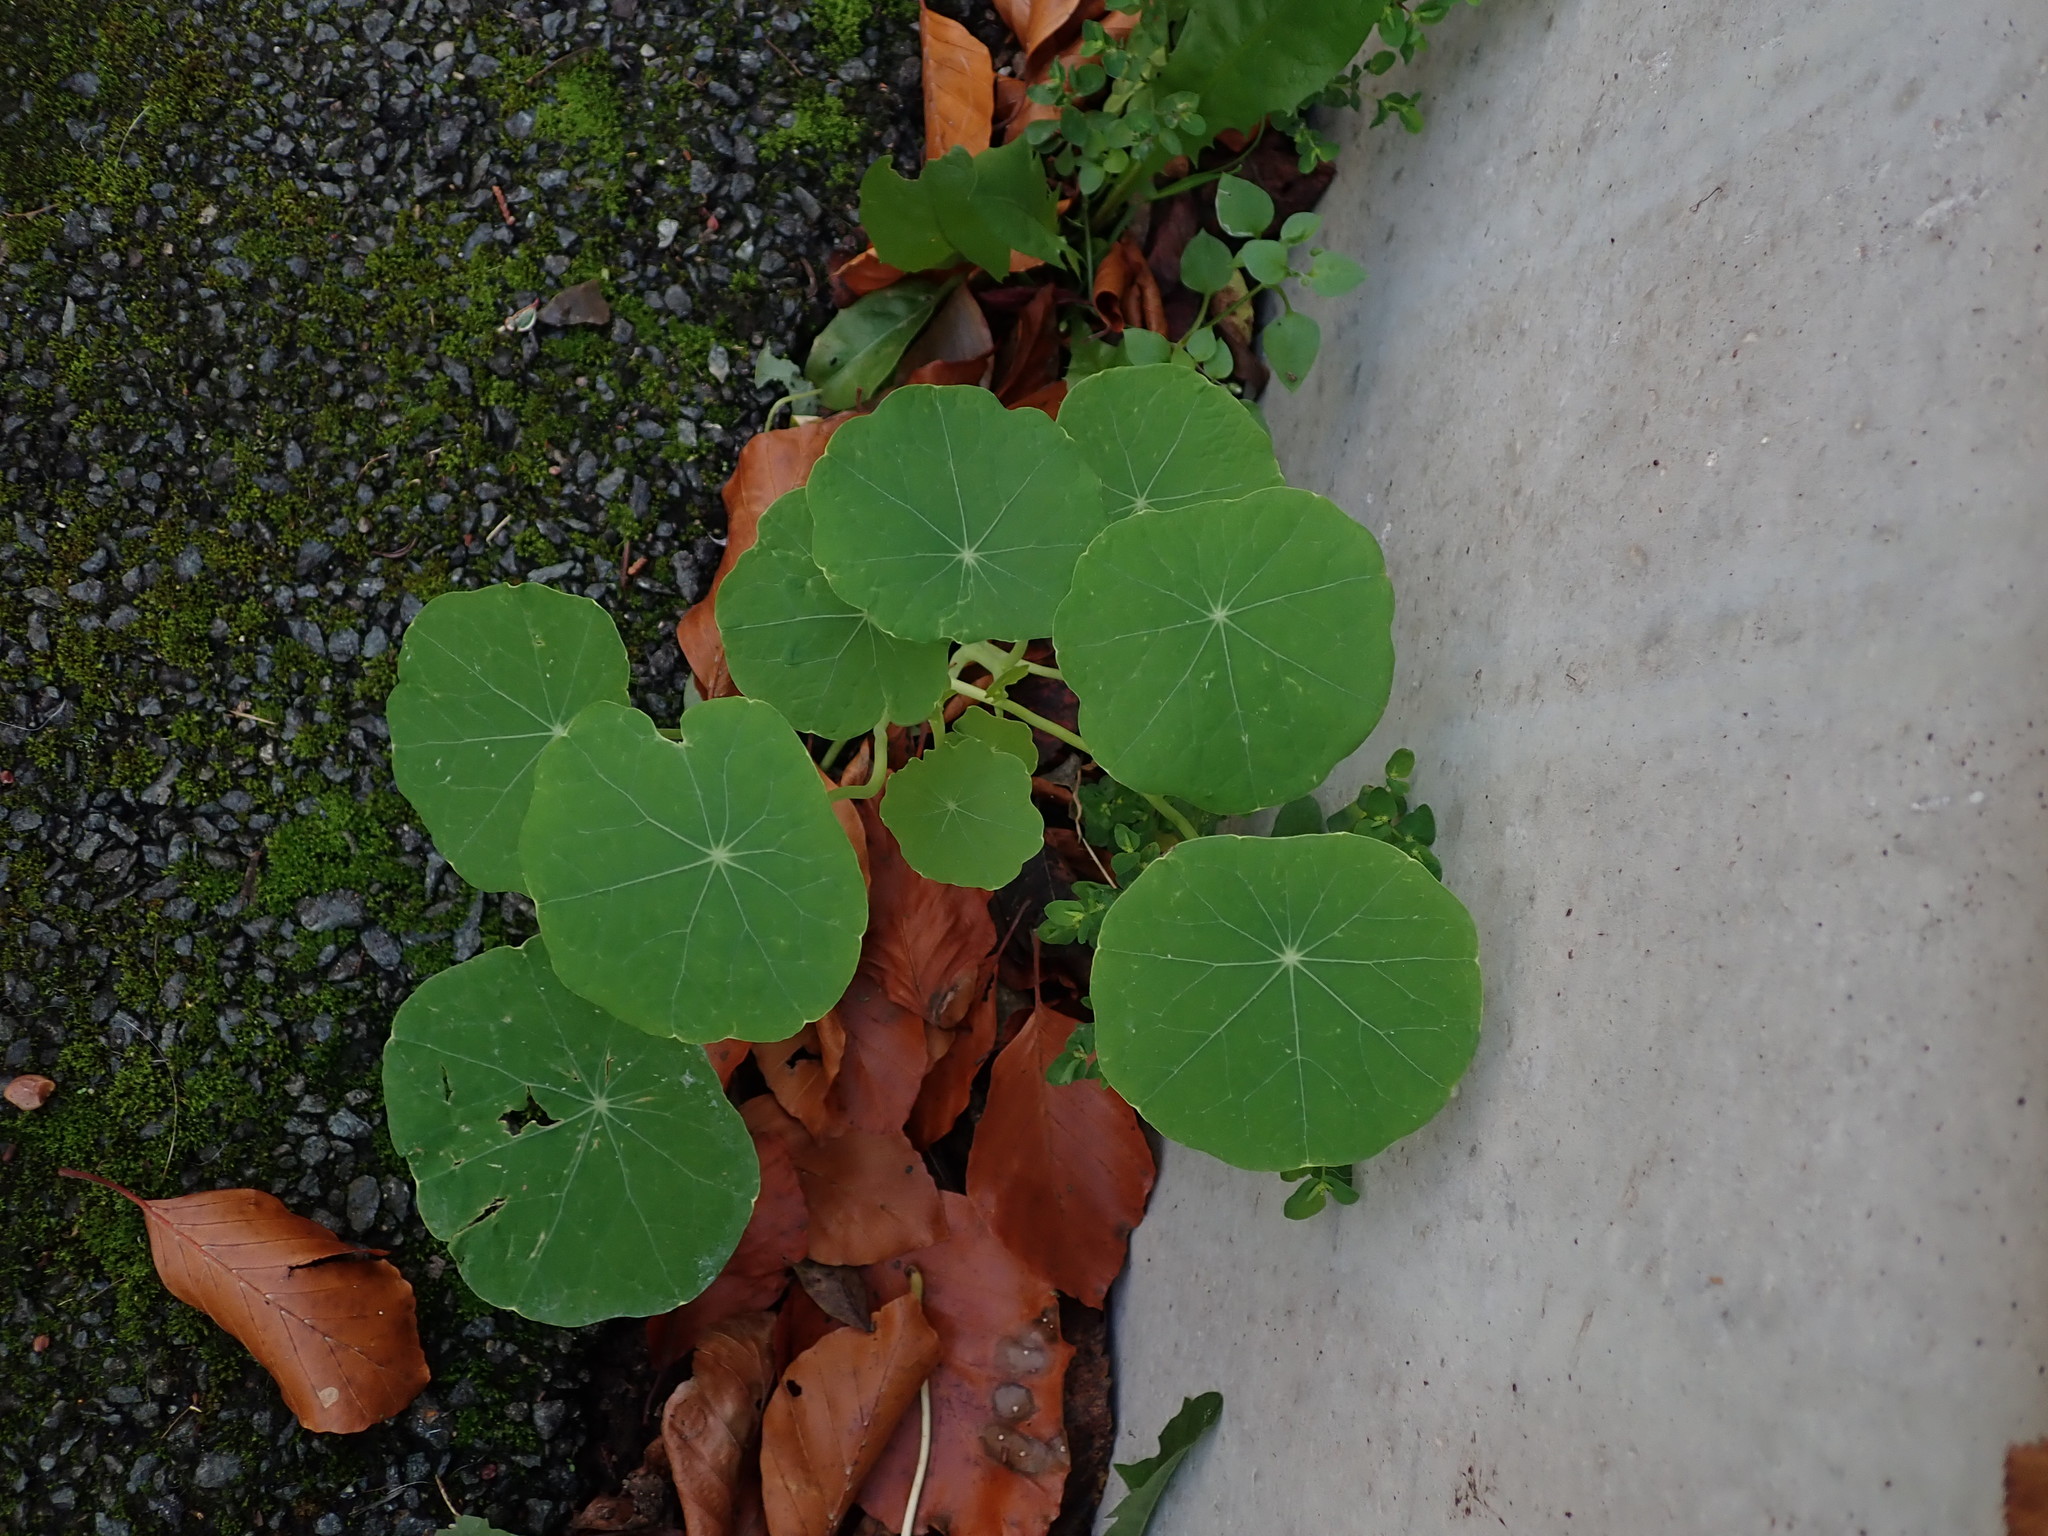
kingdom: Plantae
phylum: Tracheophyta
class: Magnoliopsida
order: Brassicales
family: Tropaeolaceae
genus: Tropaeolum
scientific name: Tropaeolum majus
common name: Nasturtium
